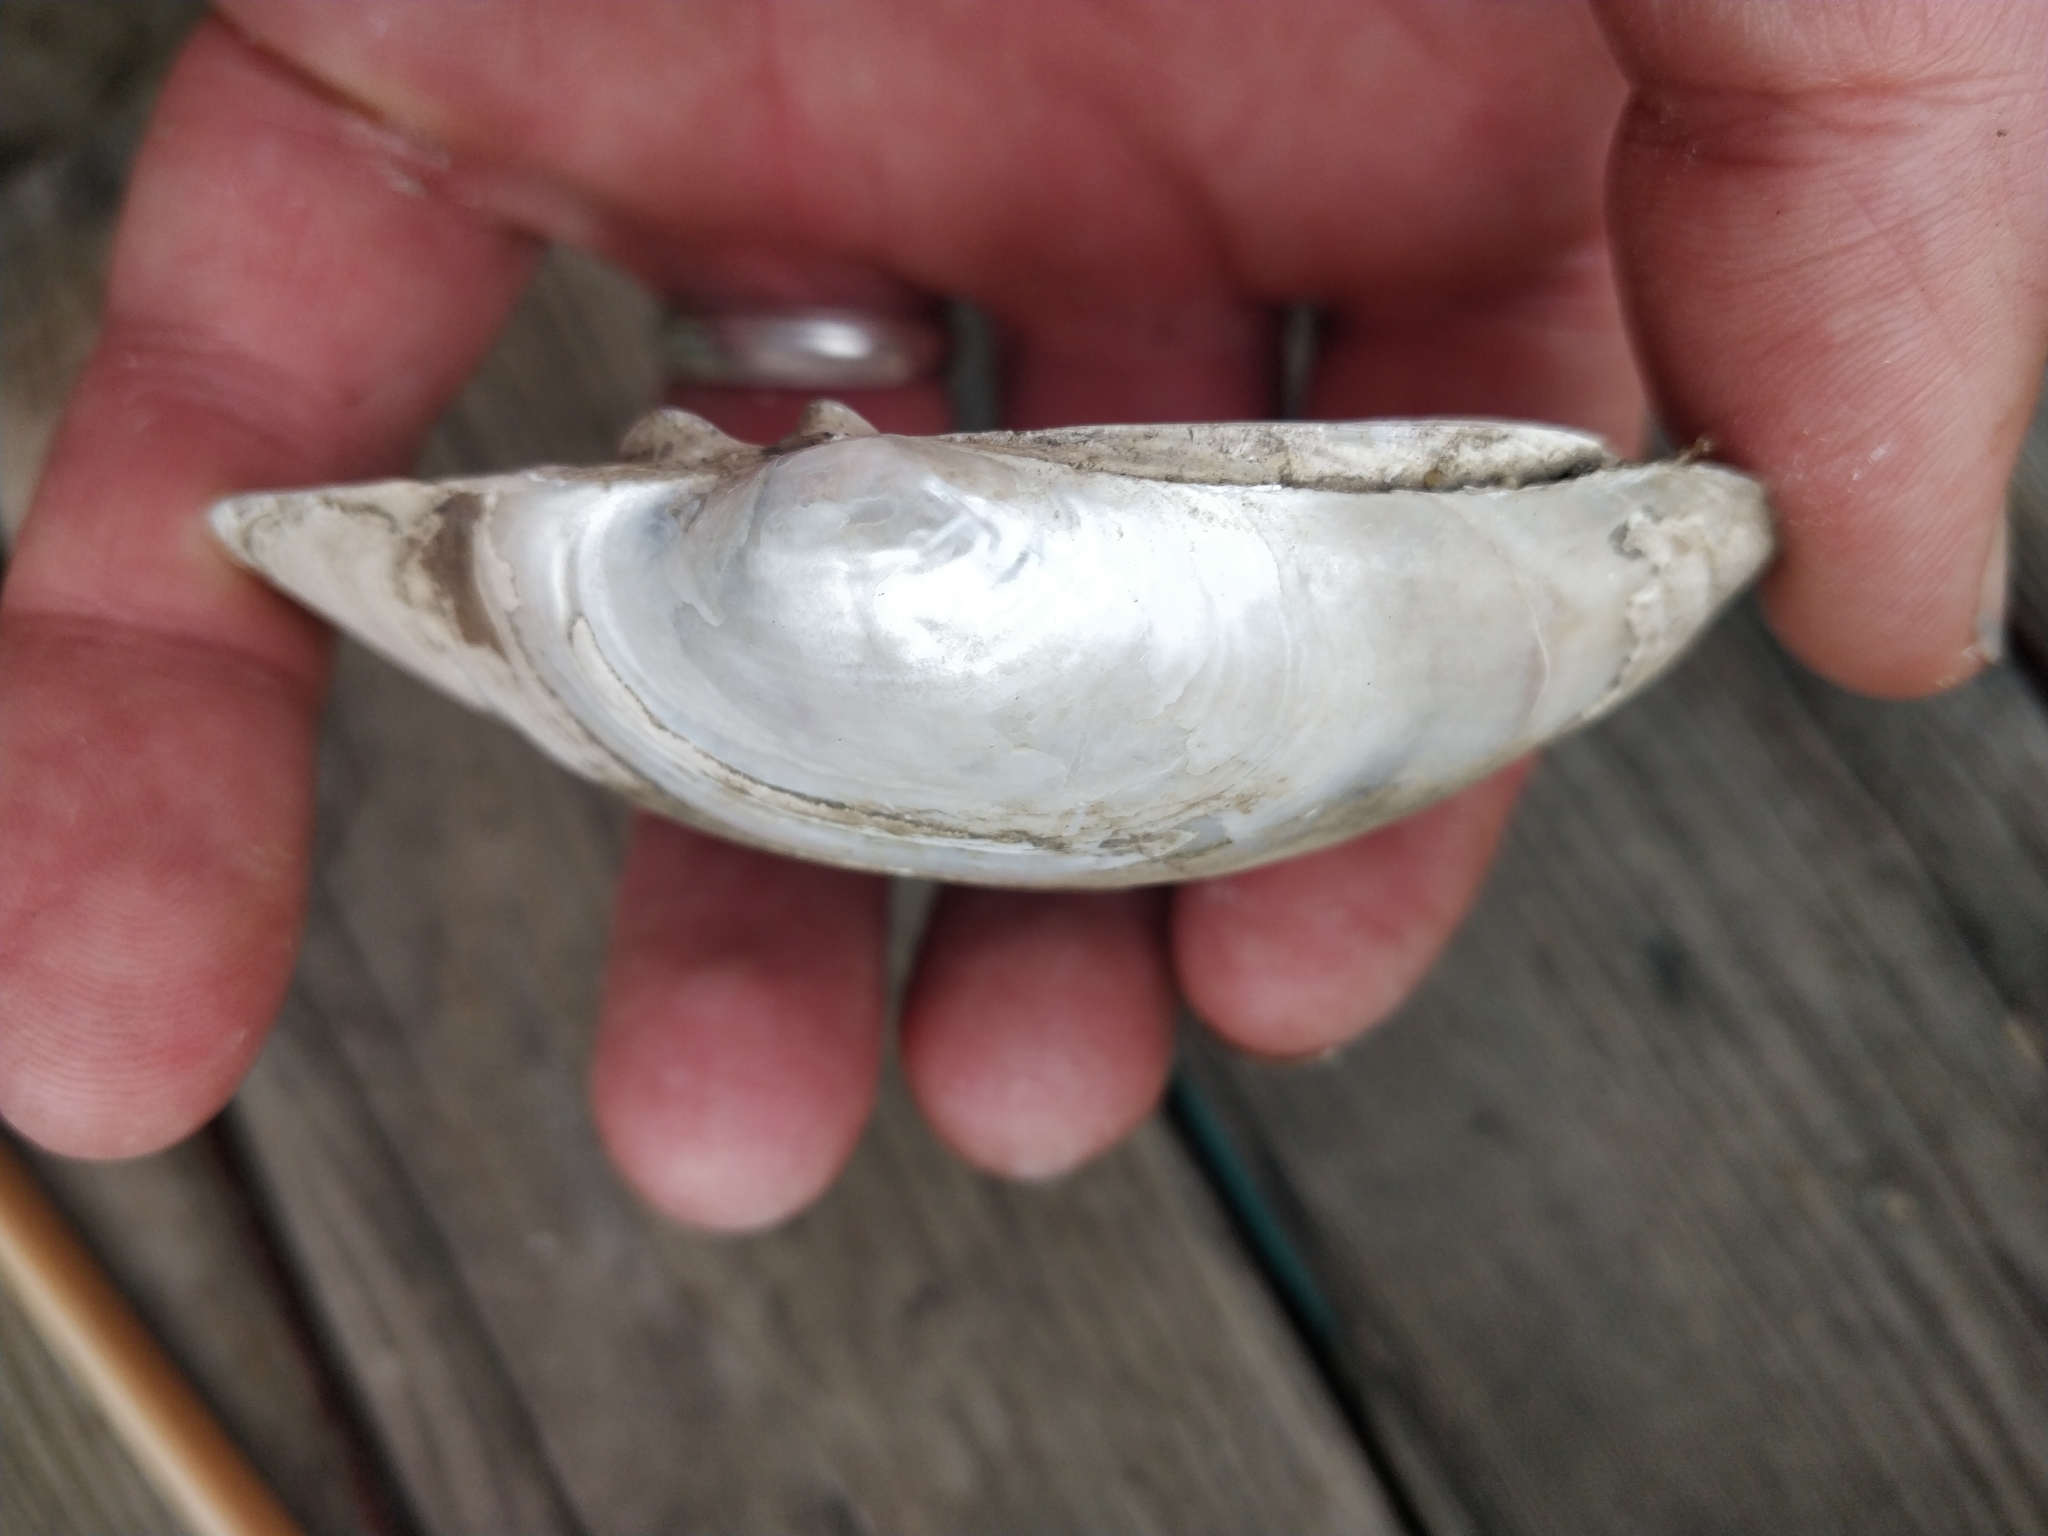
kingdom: Animalia
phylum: Mollusca
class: Bivalvia
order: Unionida
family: Unionidae
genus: Lampsilis
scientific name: Lampsilis cardium
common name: Plain pocketbook
